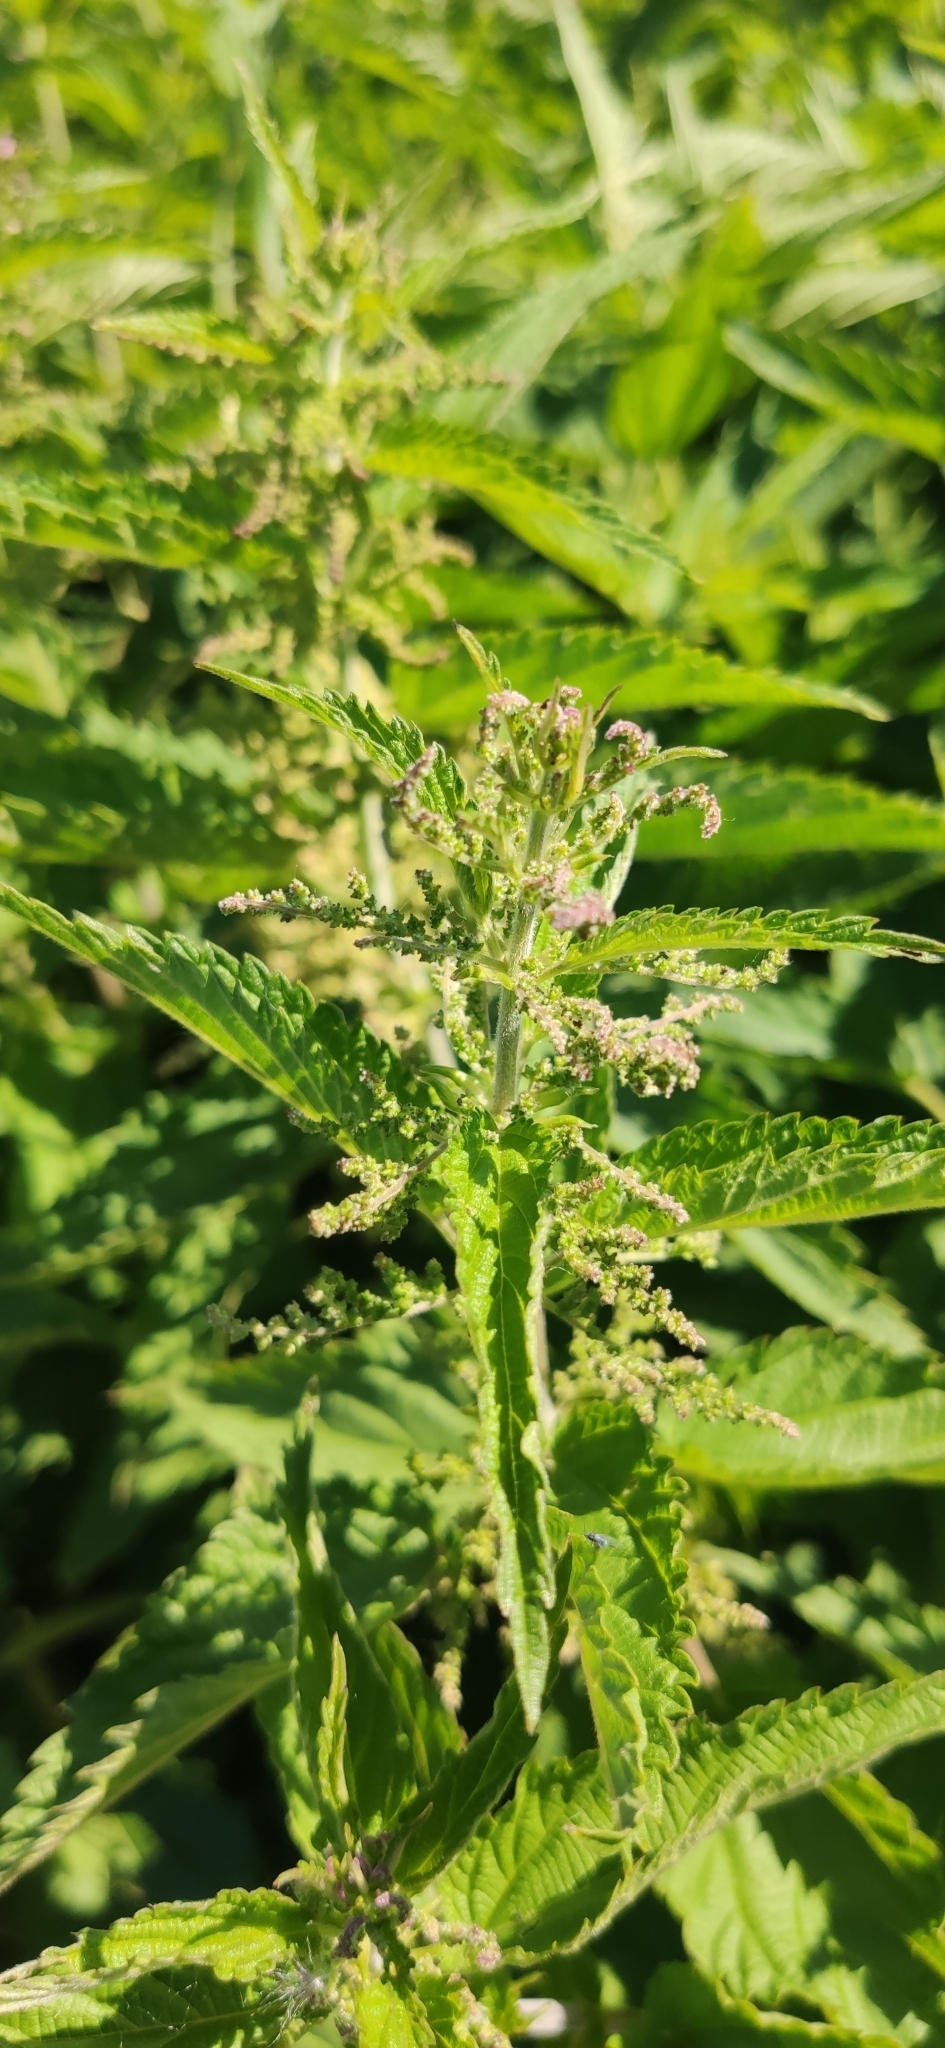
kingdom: Plantae
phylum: Tracheophyta
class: Magnoliopsida
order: Rosales
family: Urticaceae
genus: Urtica
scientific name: Urtica dioica
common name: Common nettle
